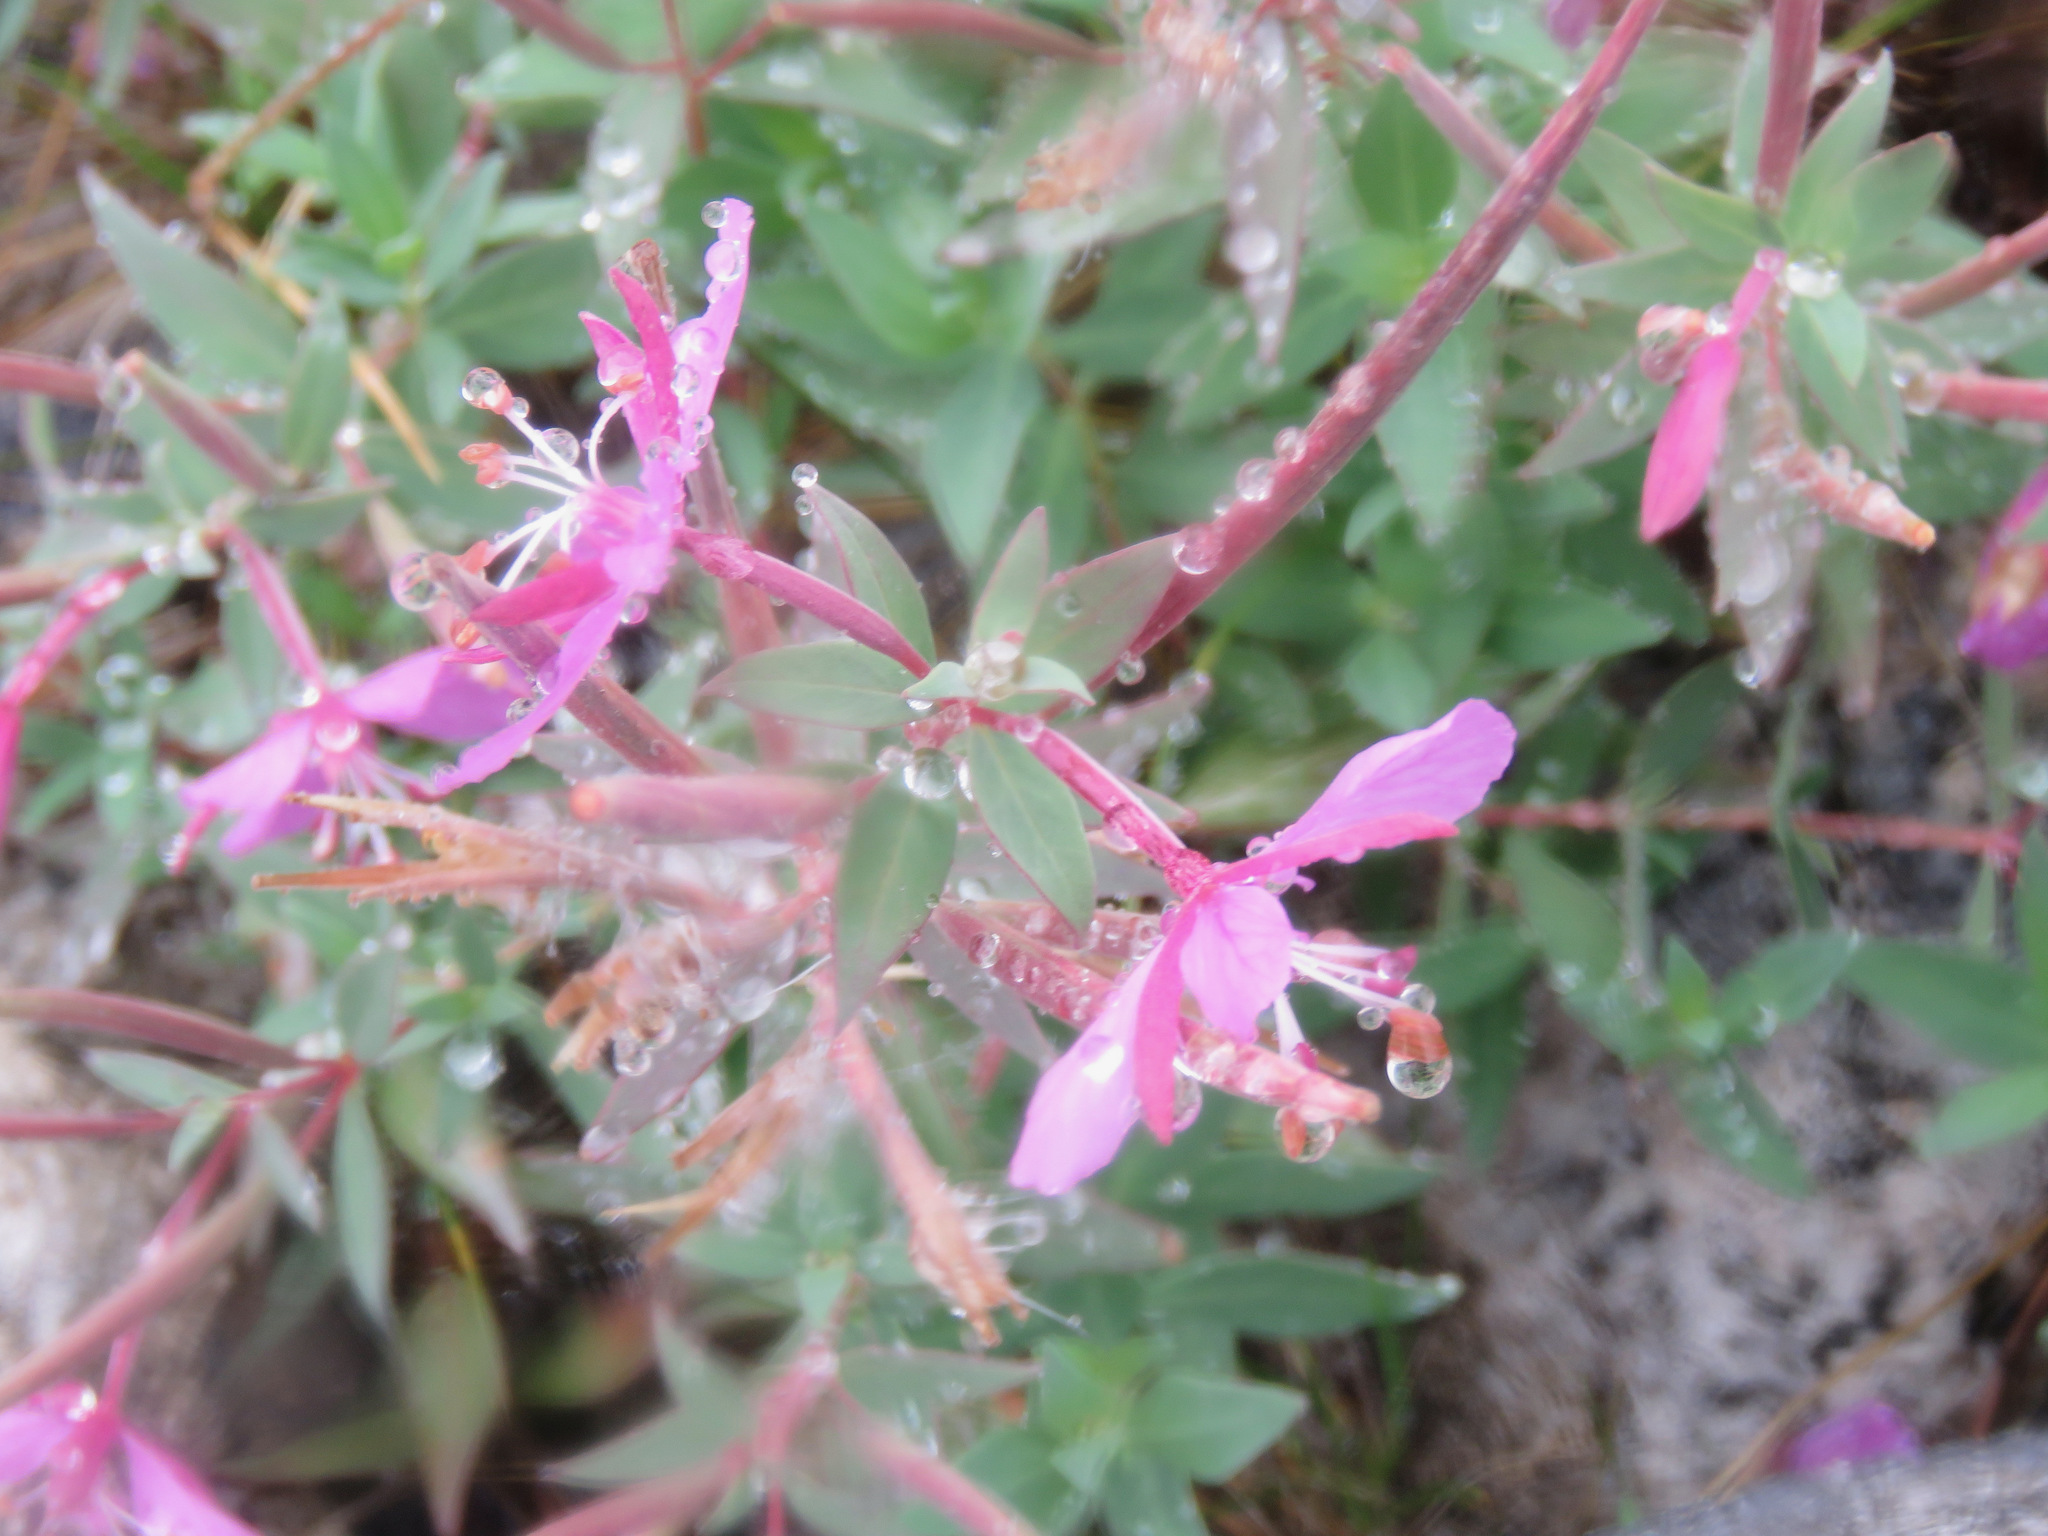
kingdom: Plantae
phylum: Tracheophyta
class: Magnoliopsida
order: Myrtales
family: Onagraceae
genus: Chamaenerion
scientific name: Chamaenerion latifolium
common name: Dwarf fireweed
